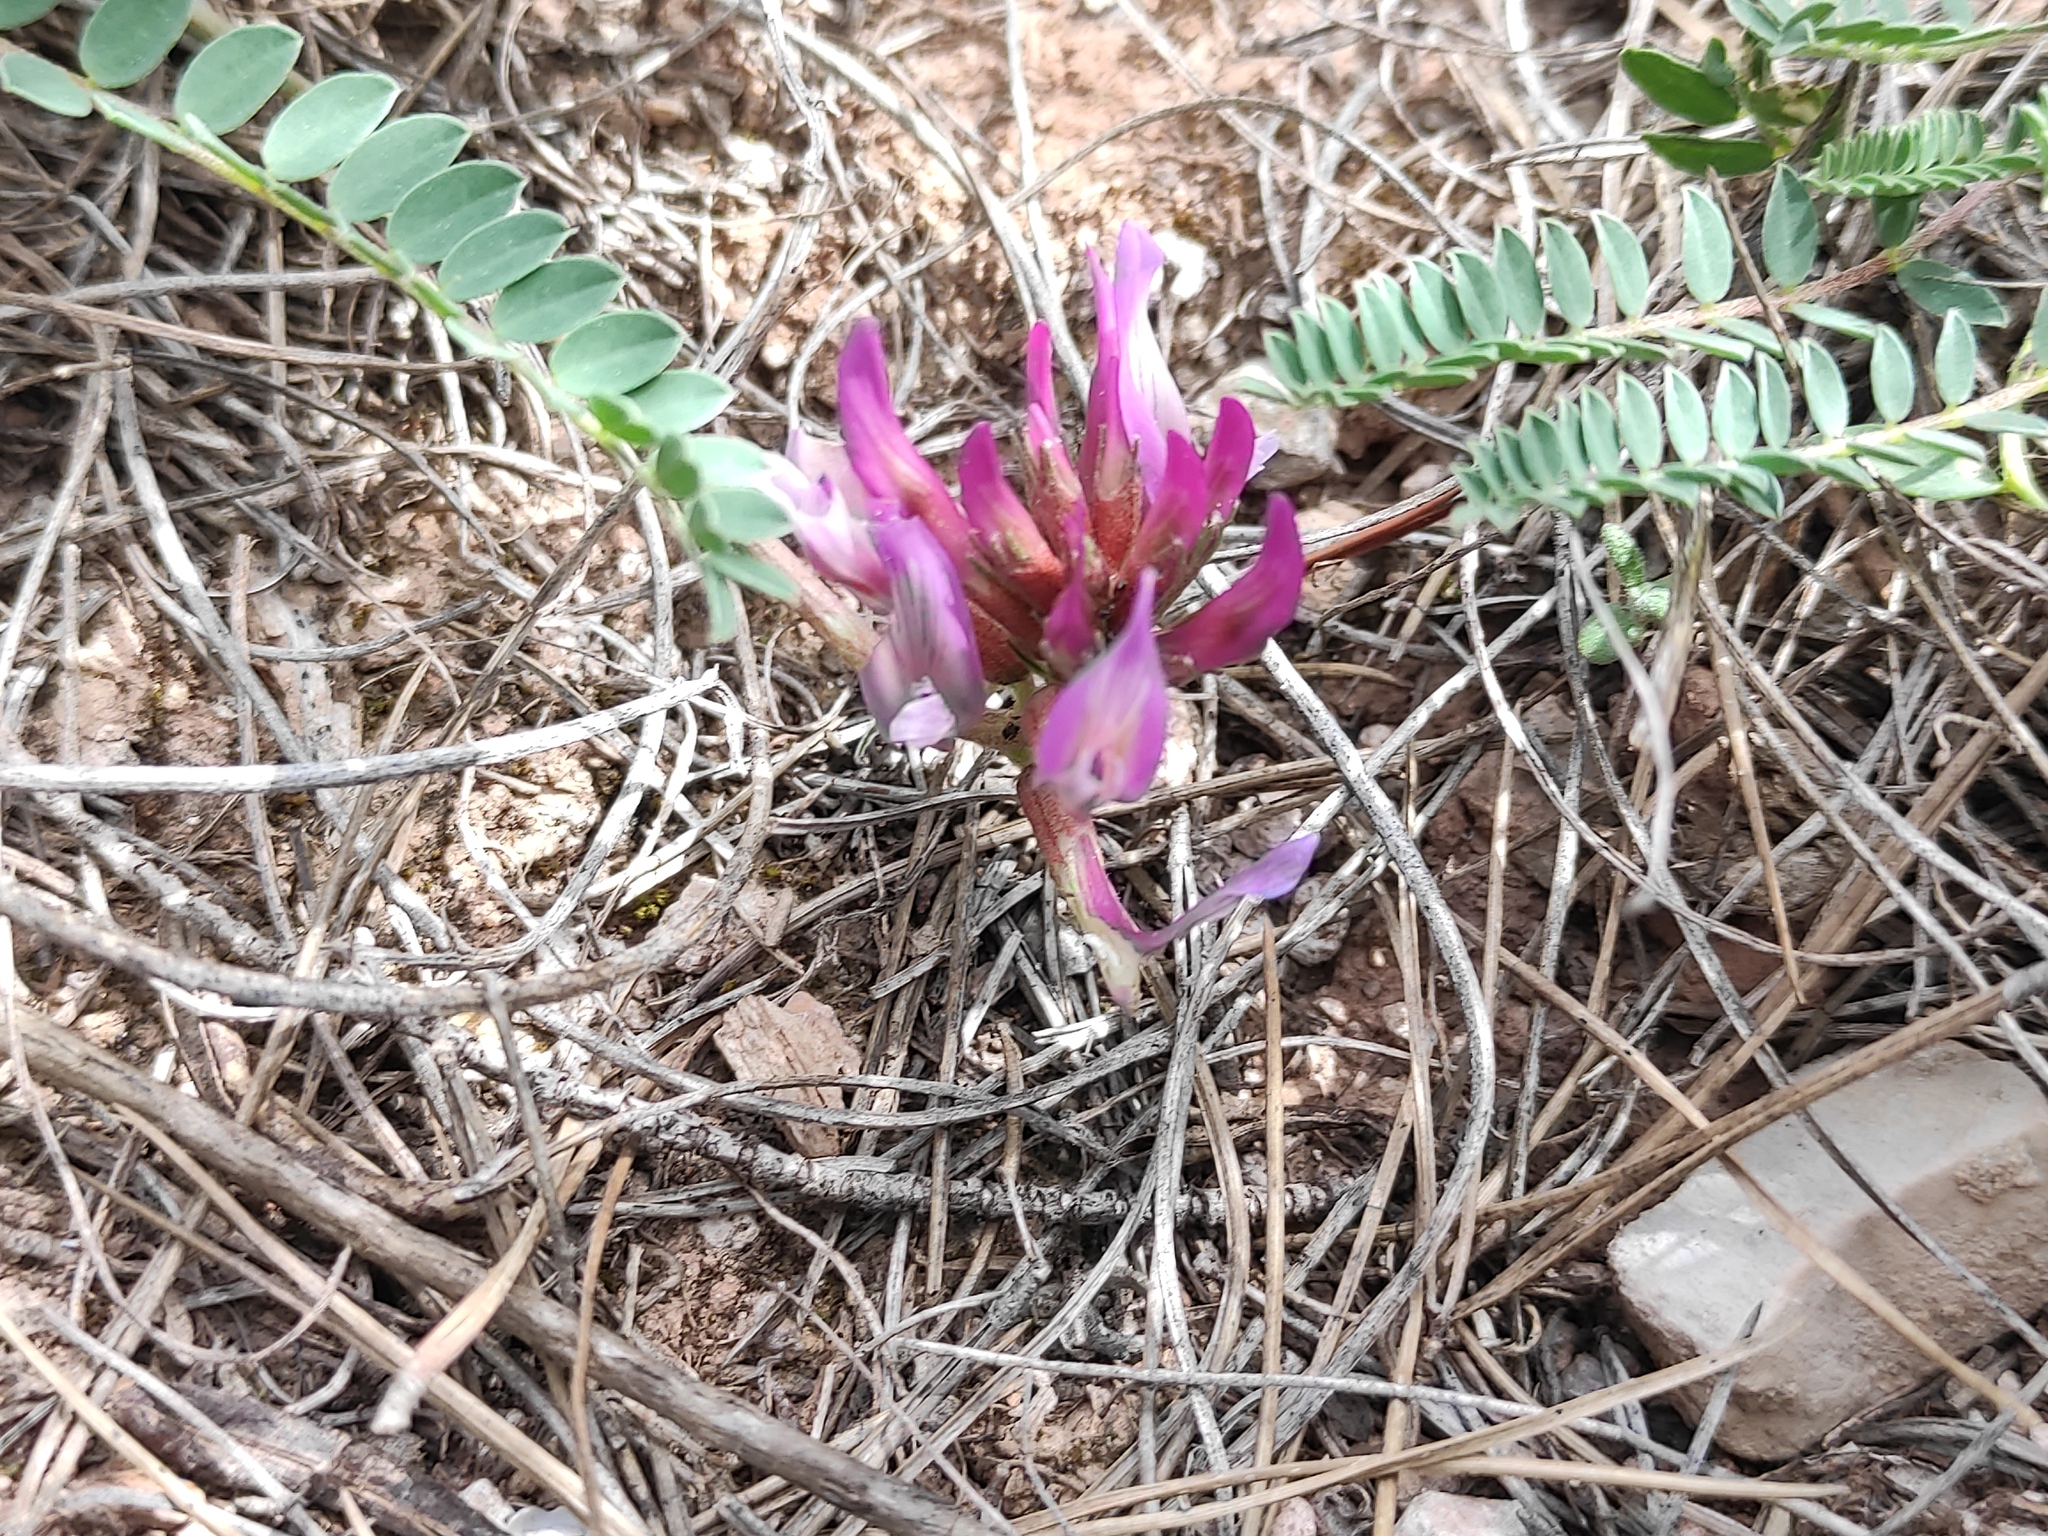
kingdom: Plantae
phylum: Tracheophyta
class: Magnoliopsida
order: Fabales
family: Fabaceae
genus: Astragalus
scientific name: Astragalus monspessulanus
